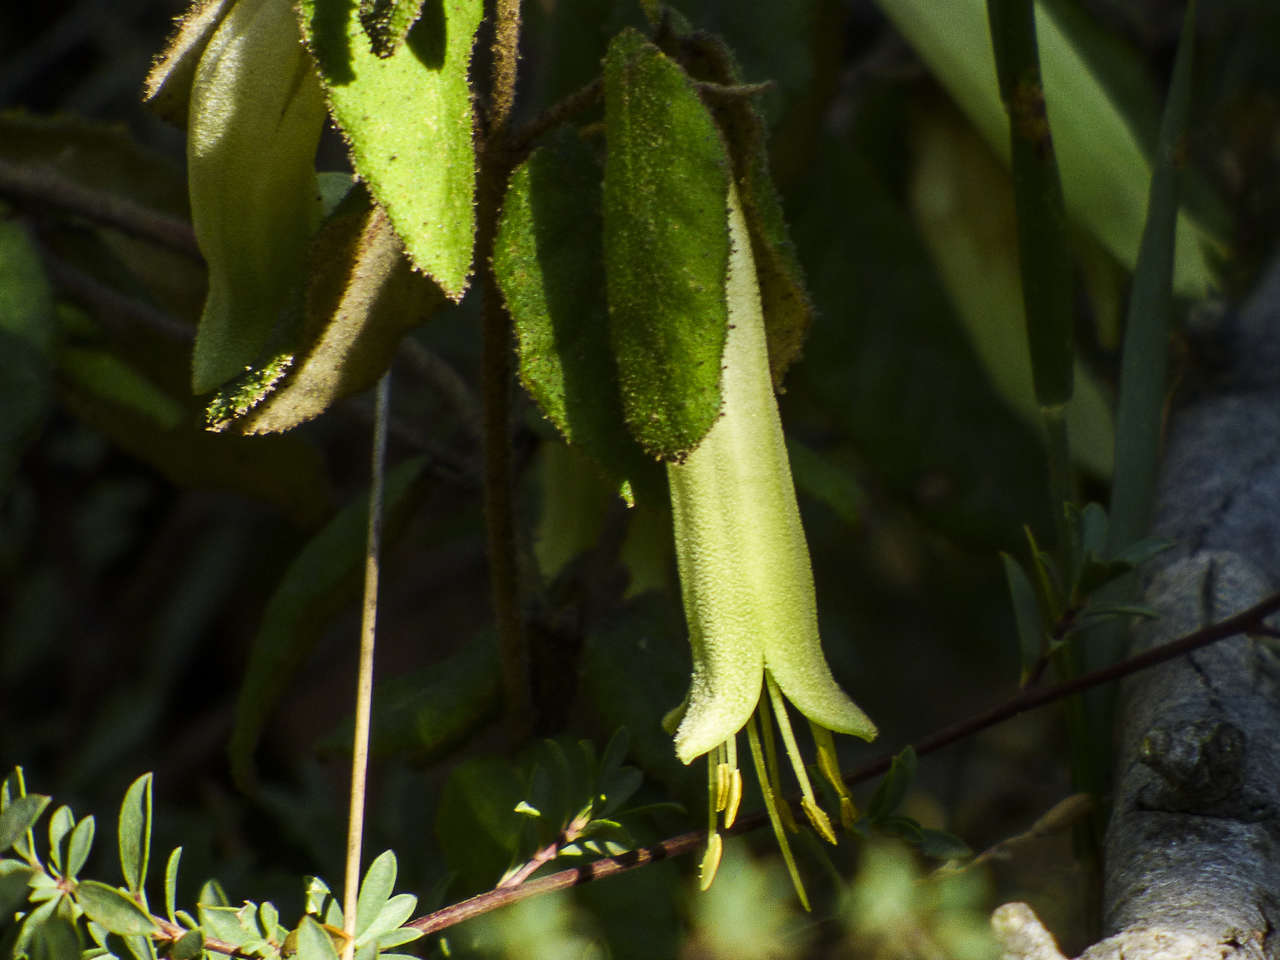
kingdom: Plantae
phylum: Tracheophyta
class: Magnoliopsida
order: Sapindales
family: Rutaceae
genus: Correa
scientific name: Correa reflexa
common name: Common correa
